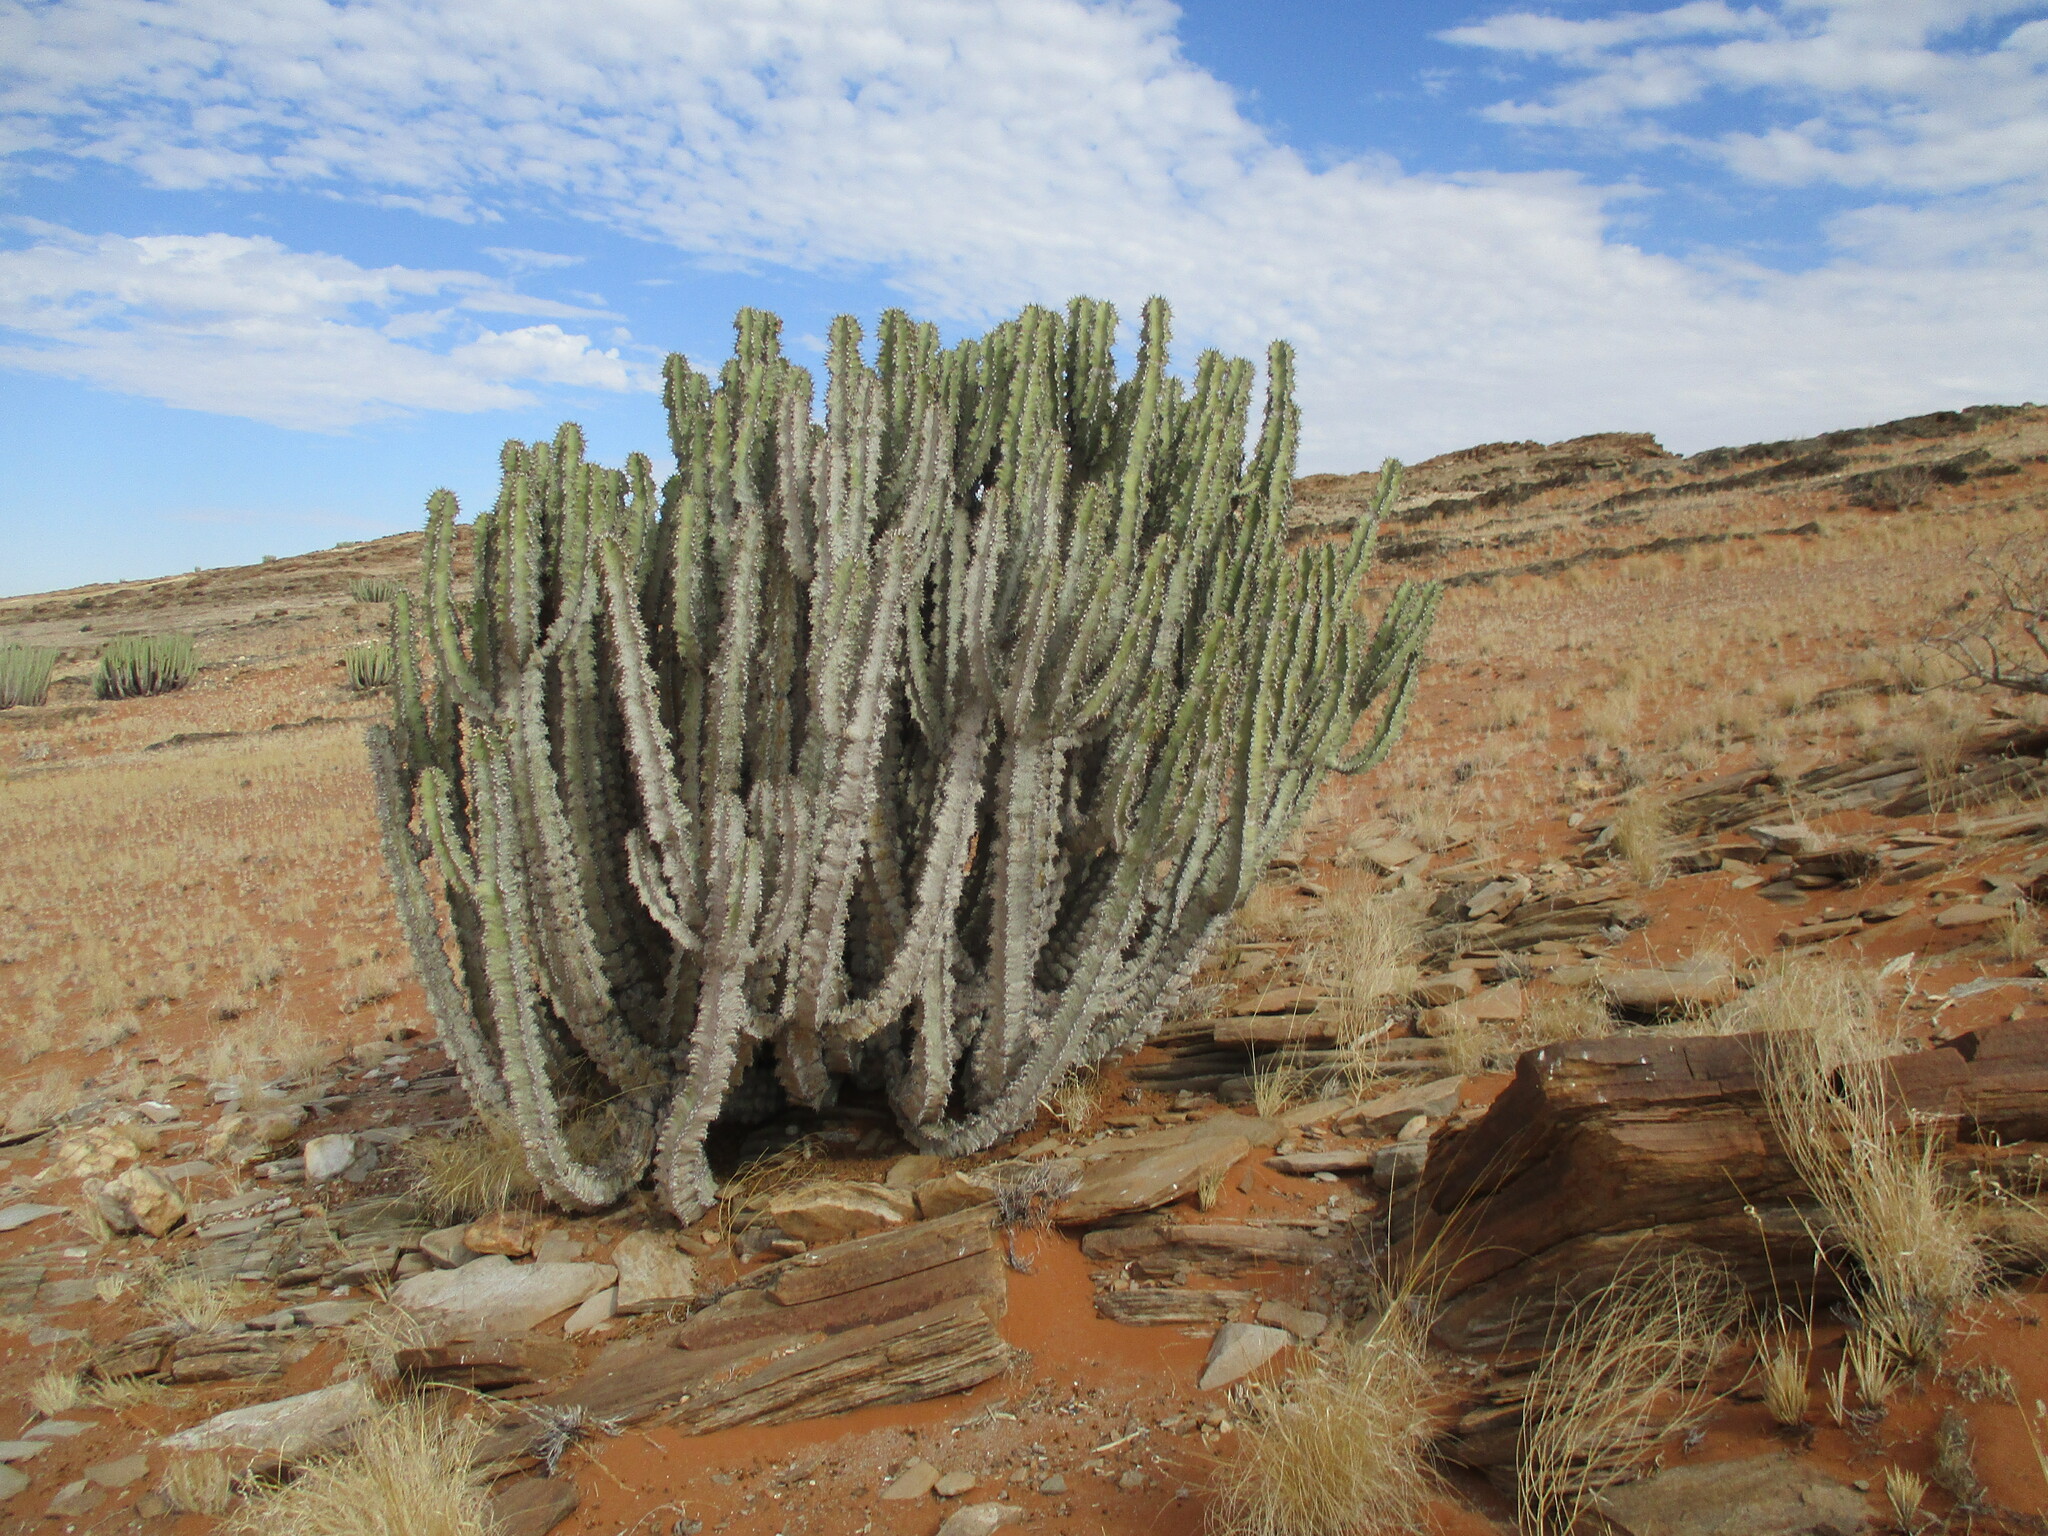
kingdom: Plantae
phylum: Tracheophyta
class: Magnoliopsida
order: Malpighiales
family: Euphorbiaceae
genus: Euphorbia
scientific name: Euphorbia virosa
